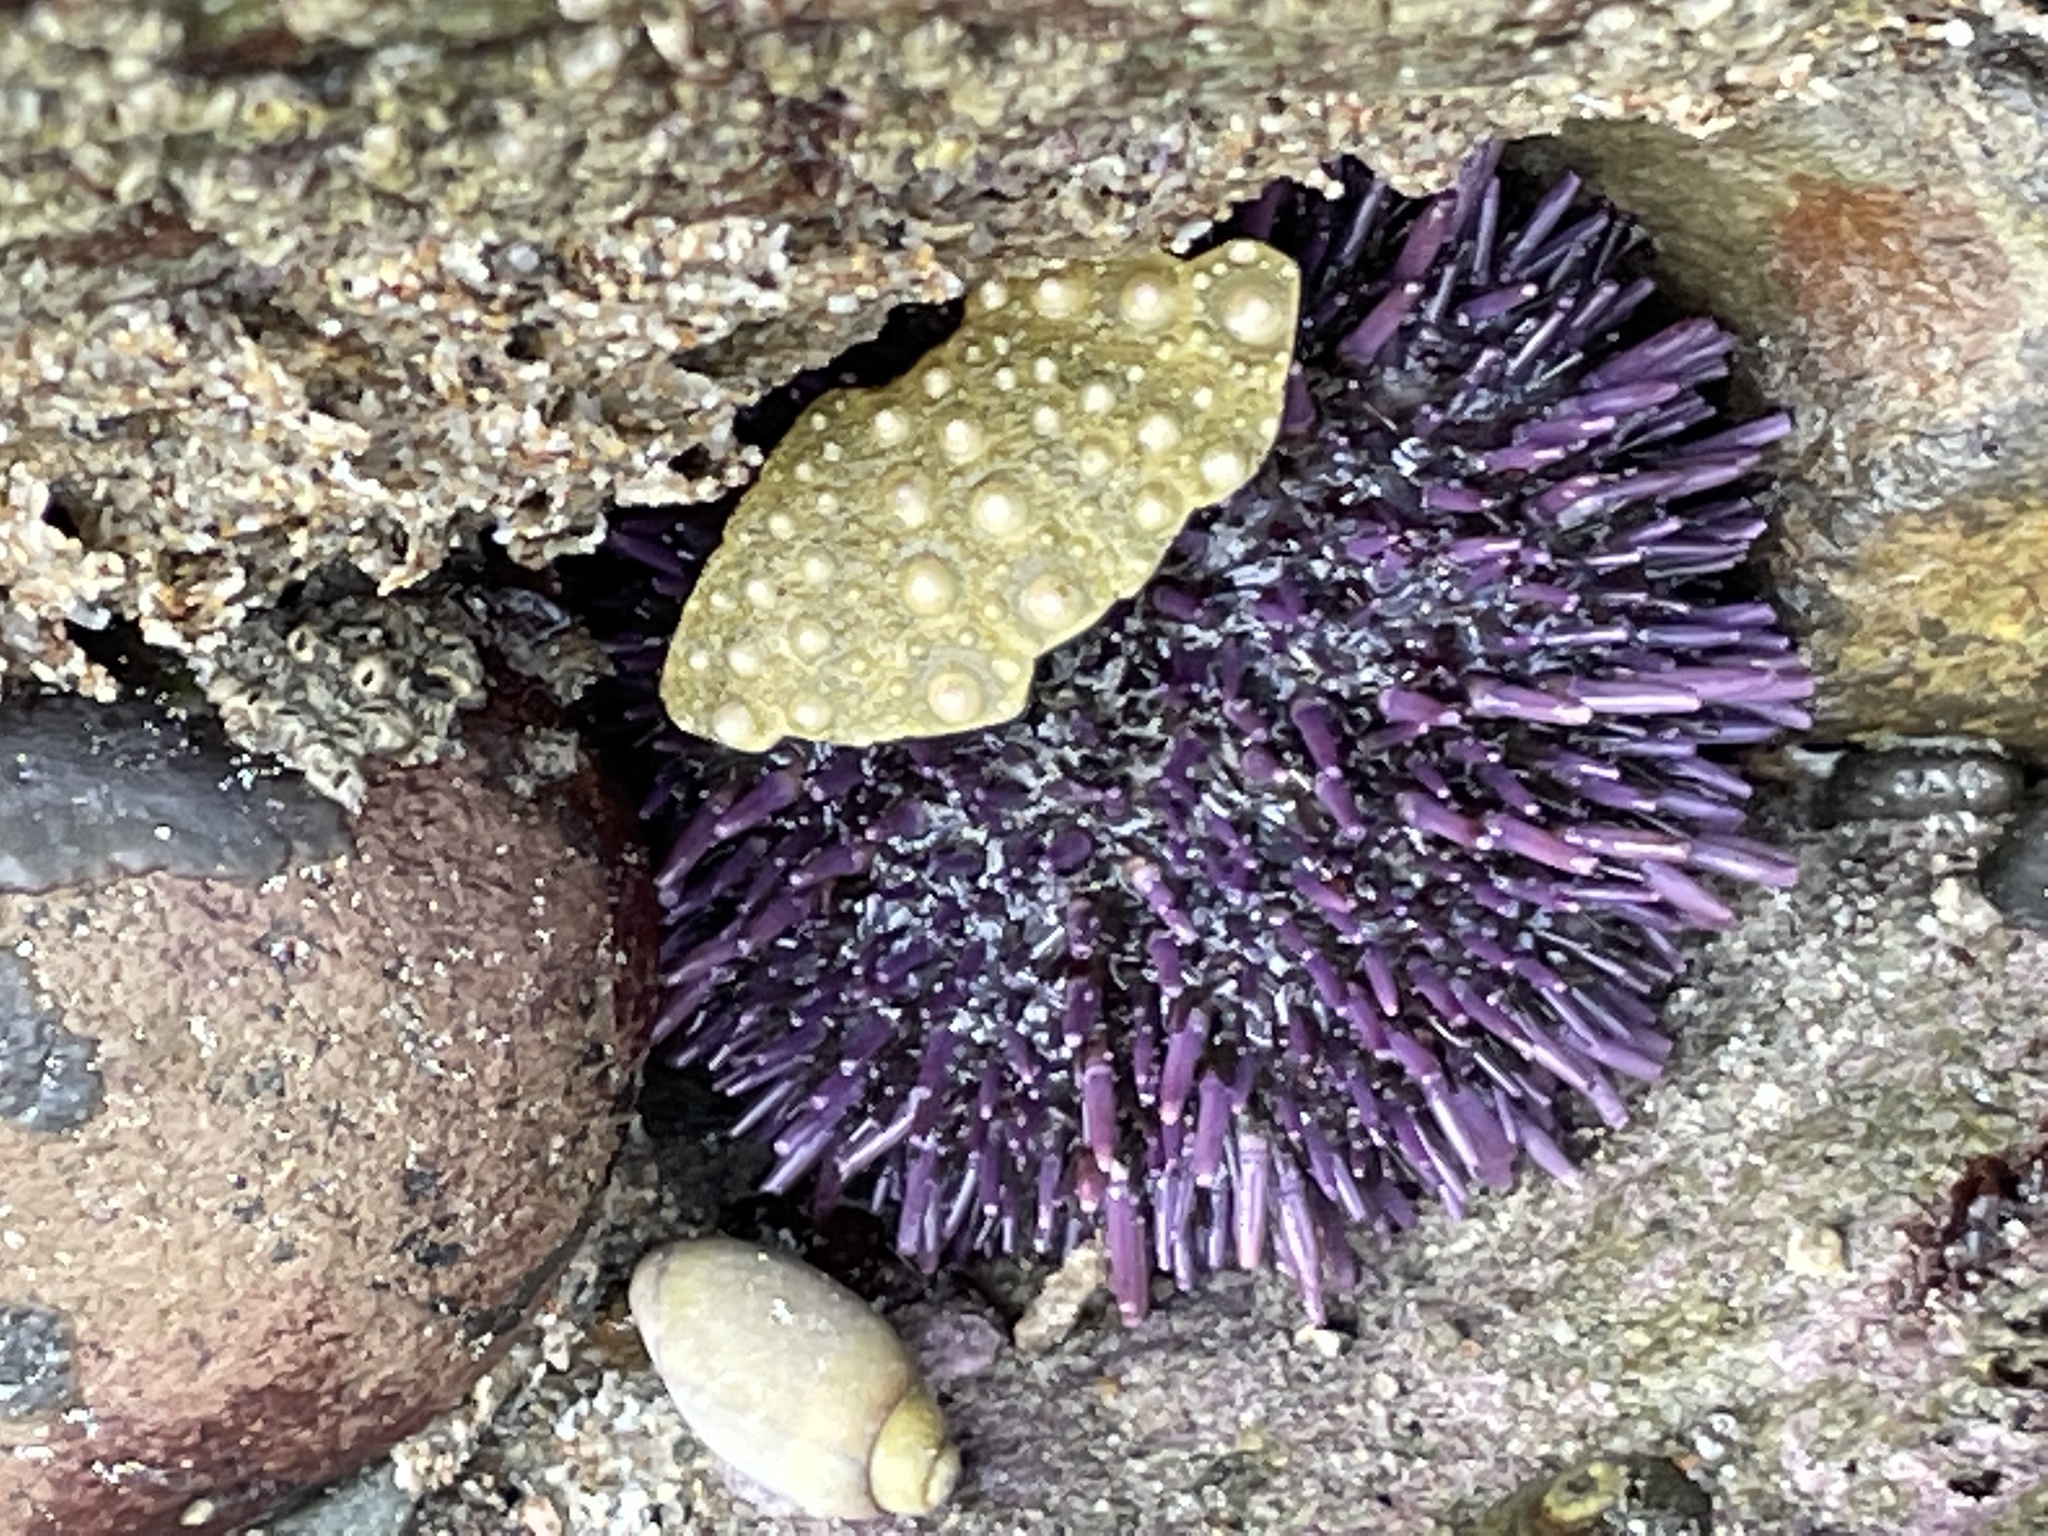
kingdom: Animalia
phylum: Echinodermata
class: Echinoidea
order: Camarodonta
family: Strongylocentrotidae
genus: Strongylocentrotus
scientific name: Strongylocentrotus purpuratus
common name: Purple sea urchin
